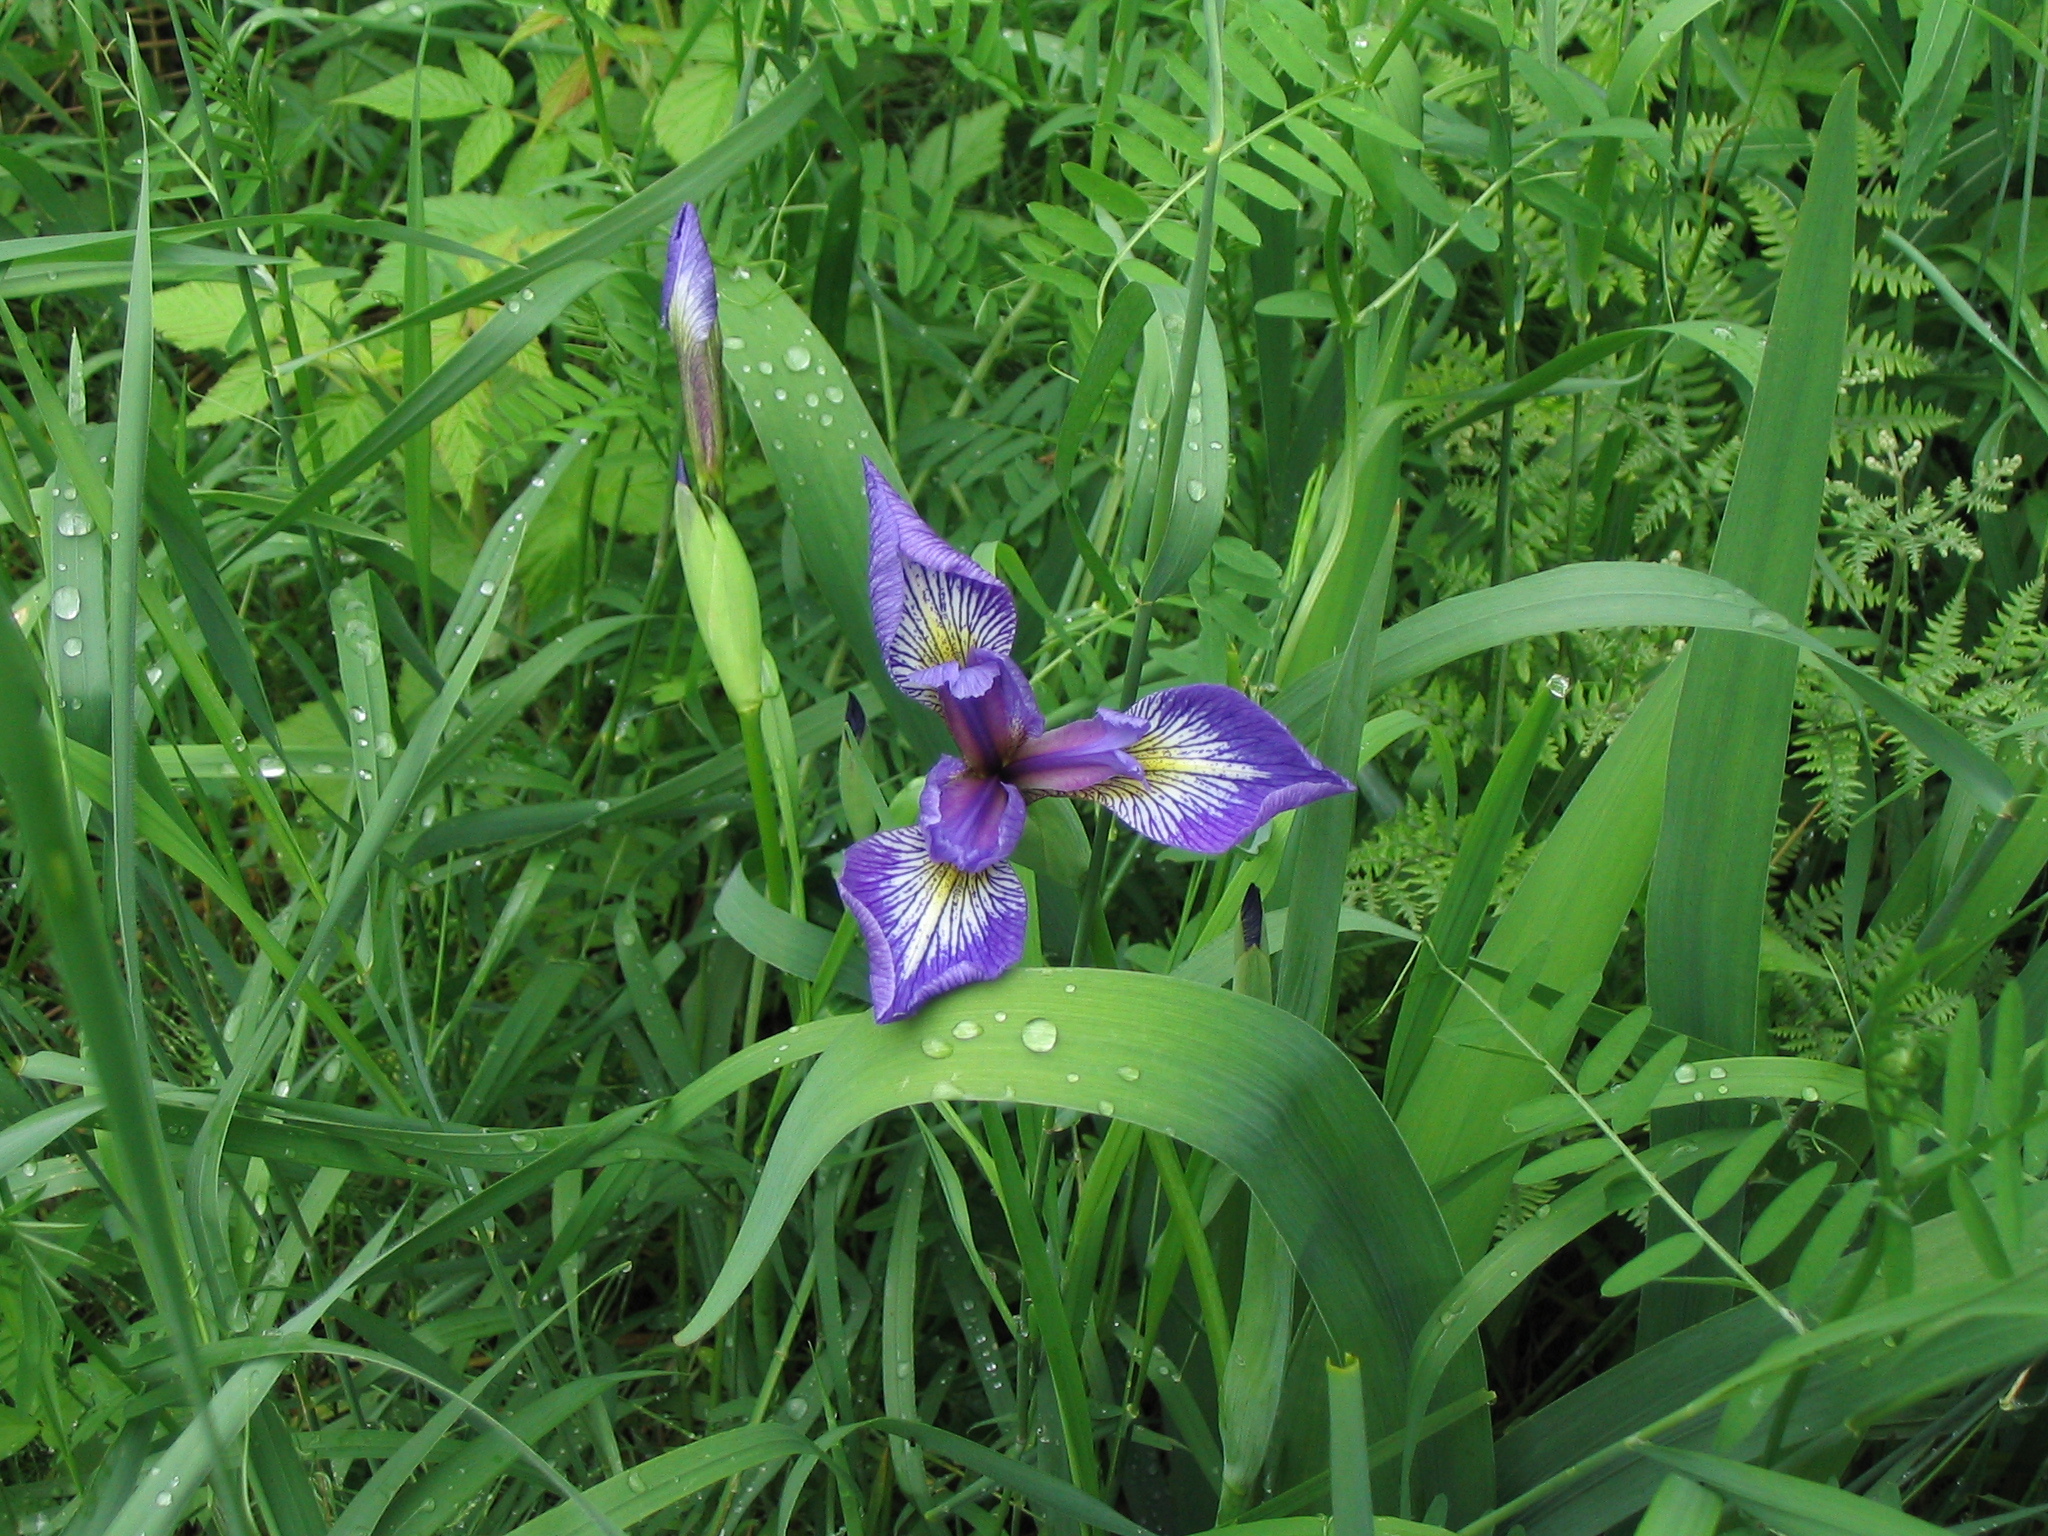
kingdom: Plantae
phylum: Tracheophyta
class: Liliopsida
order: Asparagales
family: Iridaceae
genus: Iris
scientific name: Iris versicolor
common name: Purple iris
